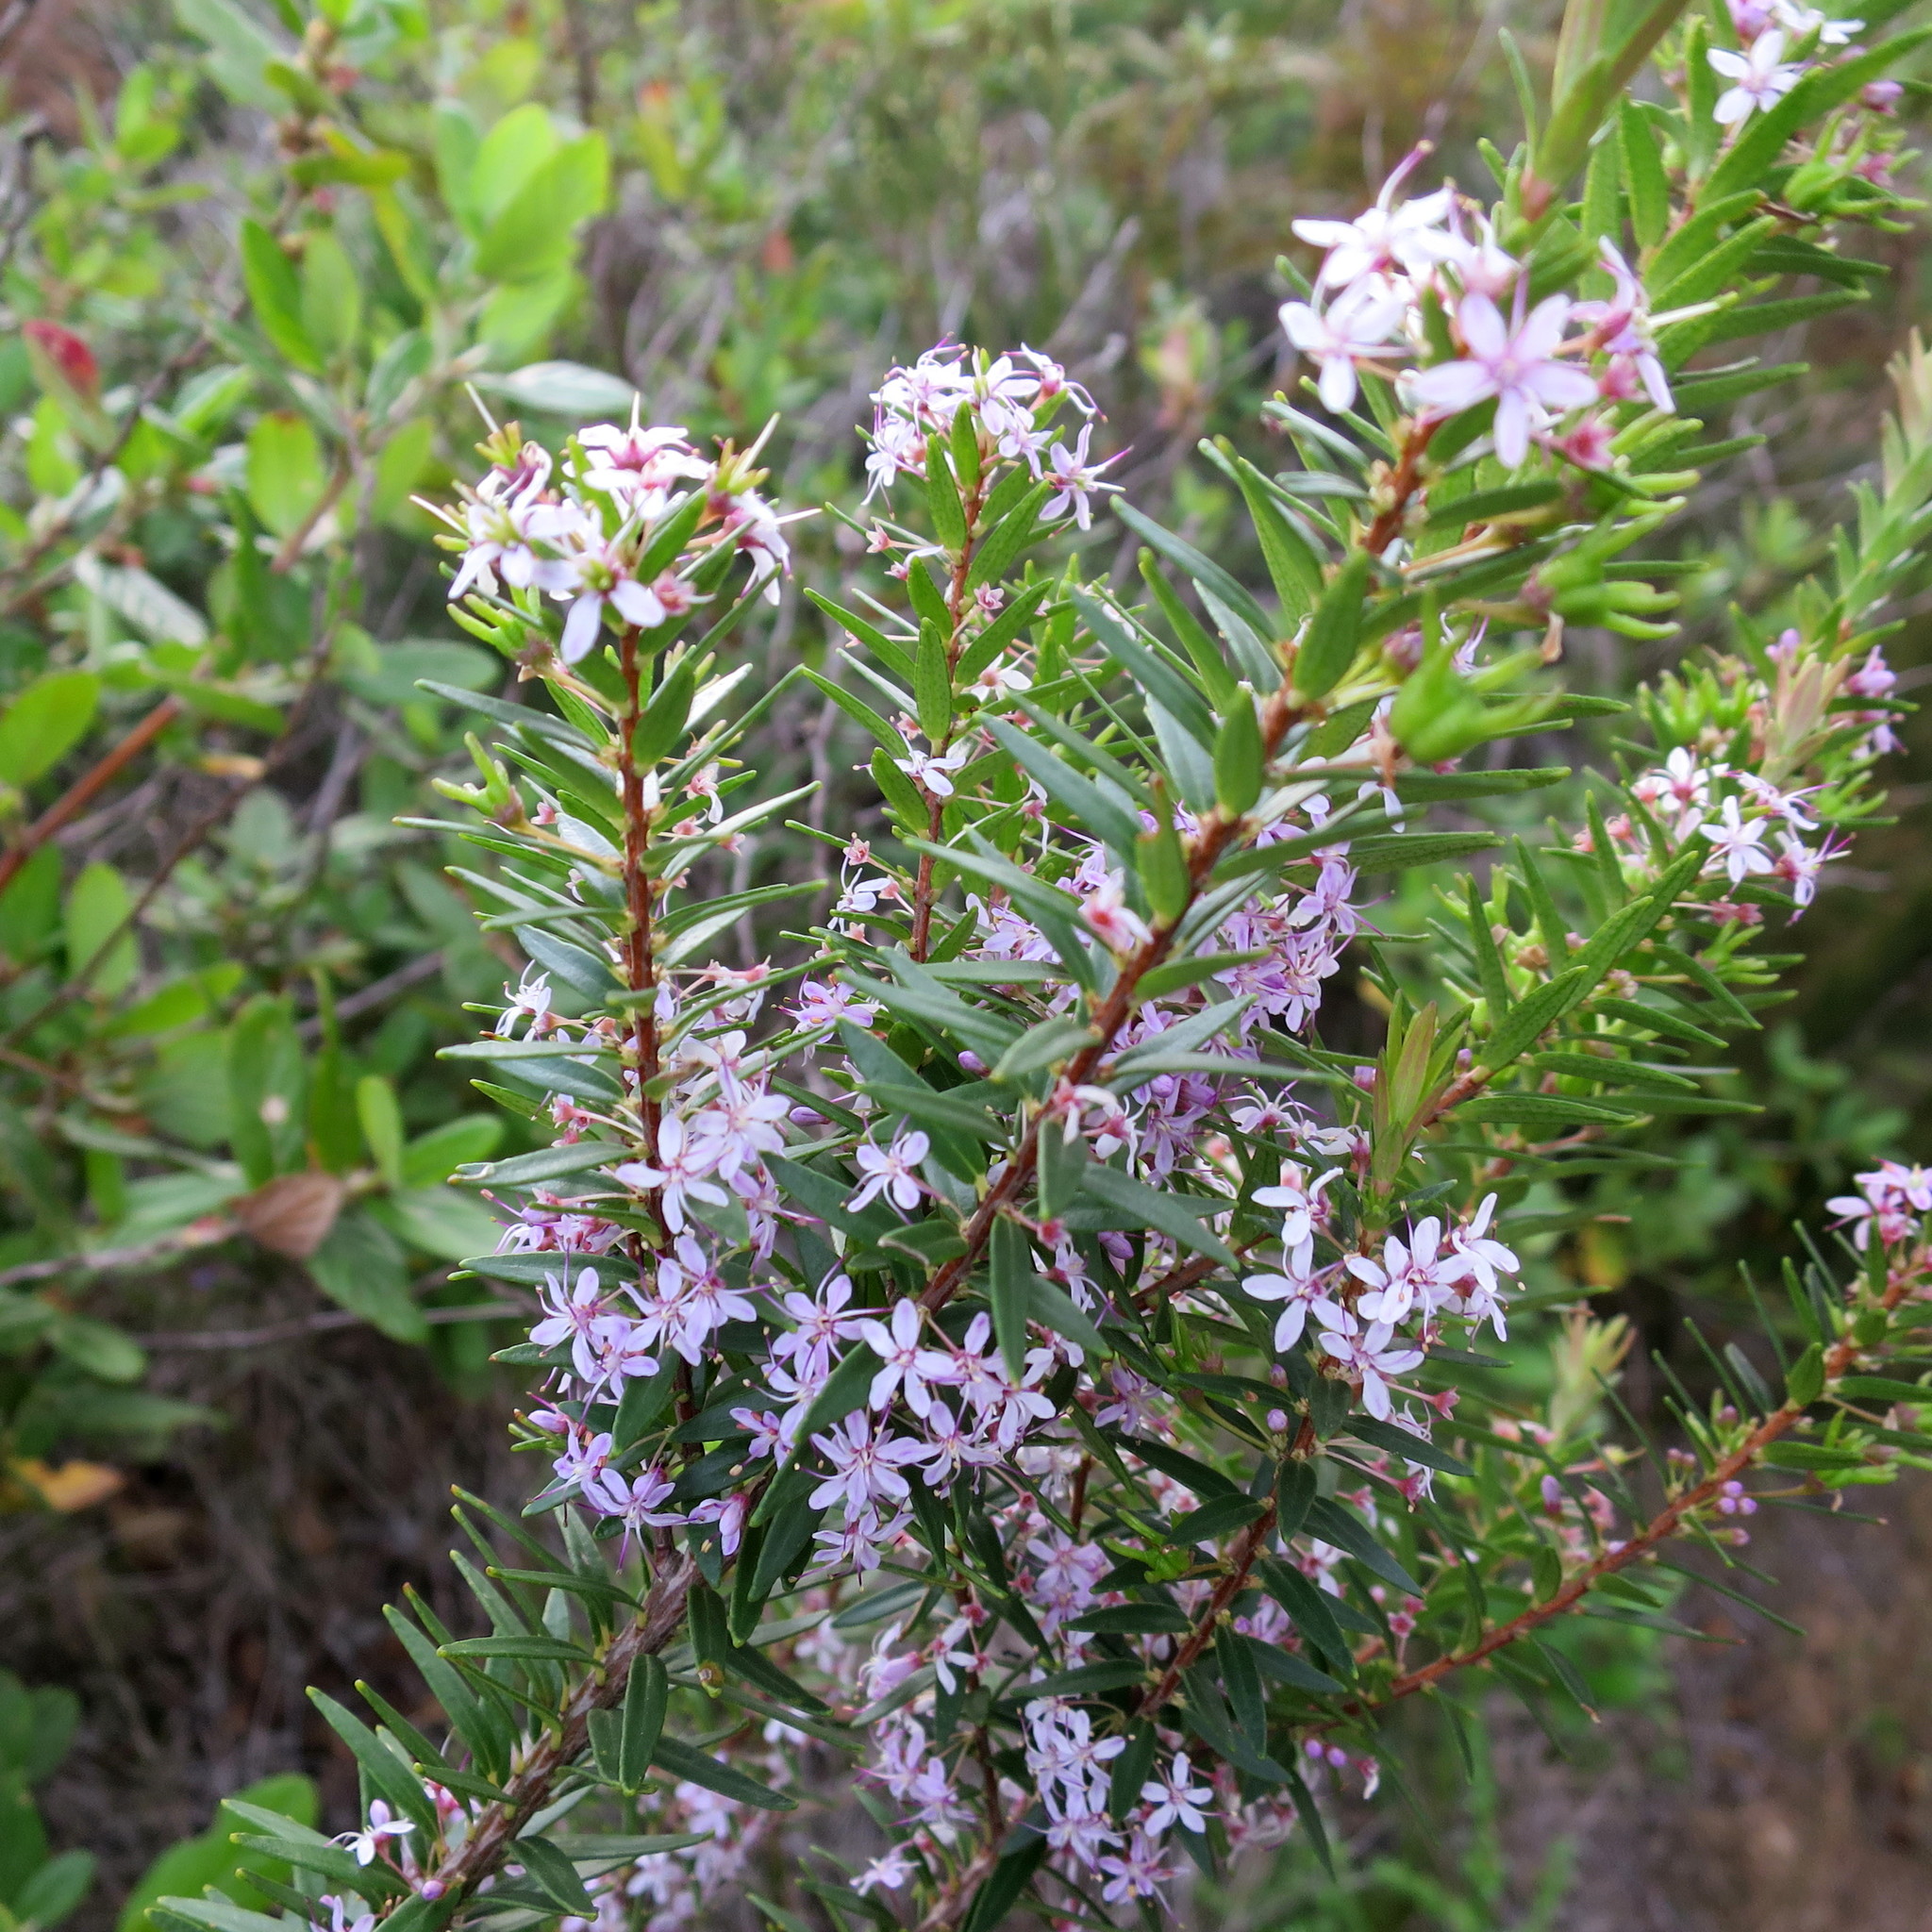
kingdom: Plantae
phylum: Tracheophyta
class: Magnoliopsida
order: Sapindales
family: Rutaceae
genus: Agathosma
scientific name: Agathosma ovata
